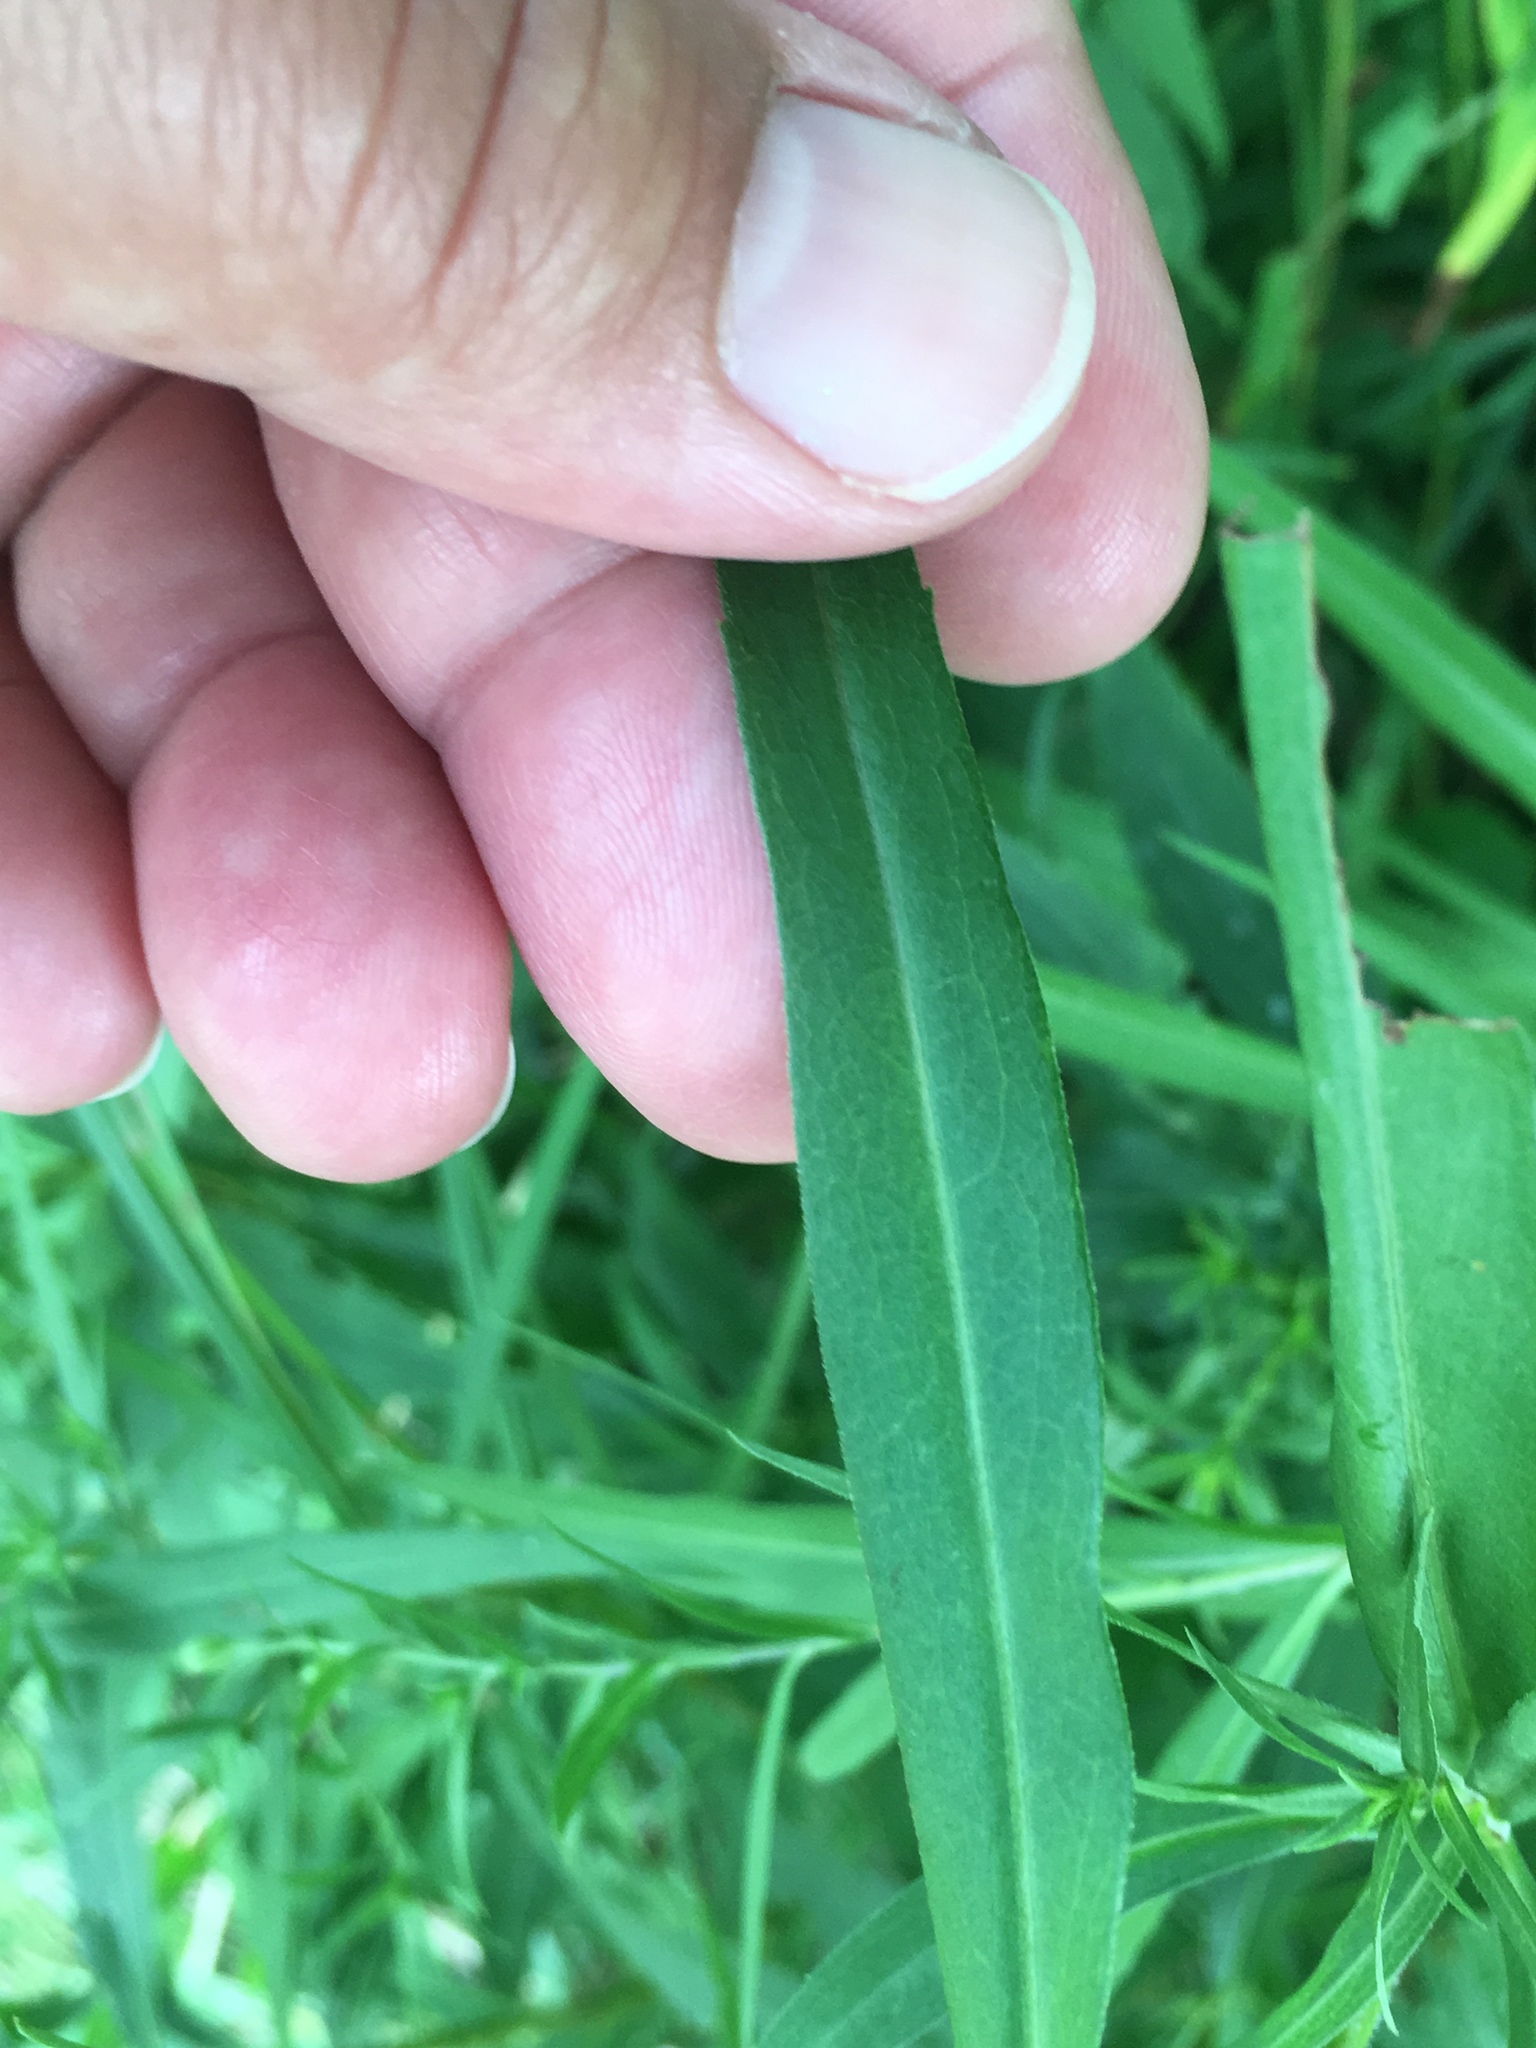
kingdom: Plantae
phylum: Tracheophyta
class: Magnoliopsida
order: Asterales
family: Asteraceae
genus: Symphyotrichum
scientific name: Symphyotrichum lanceolatum
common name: Panicled aster
